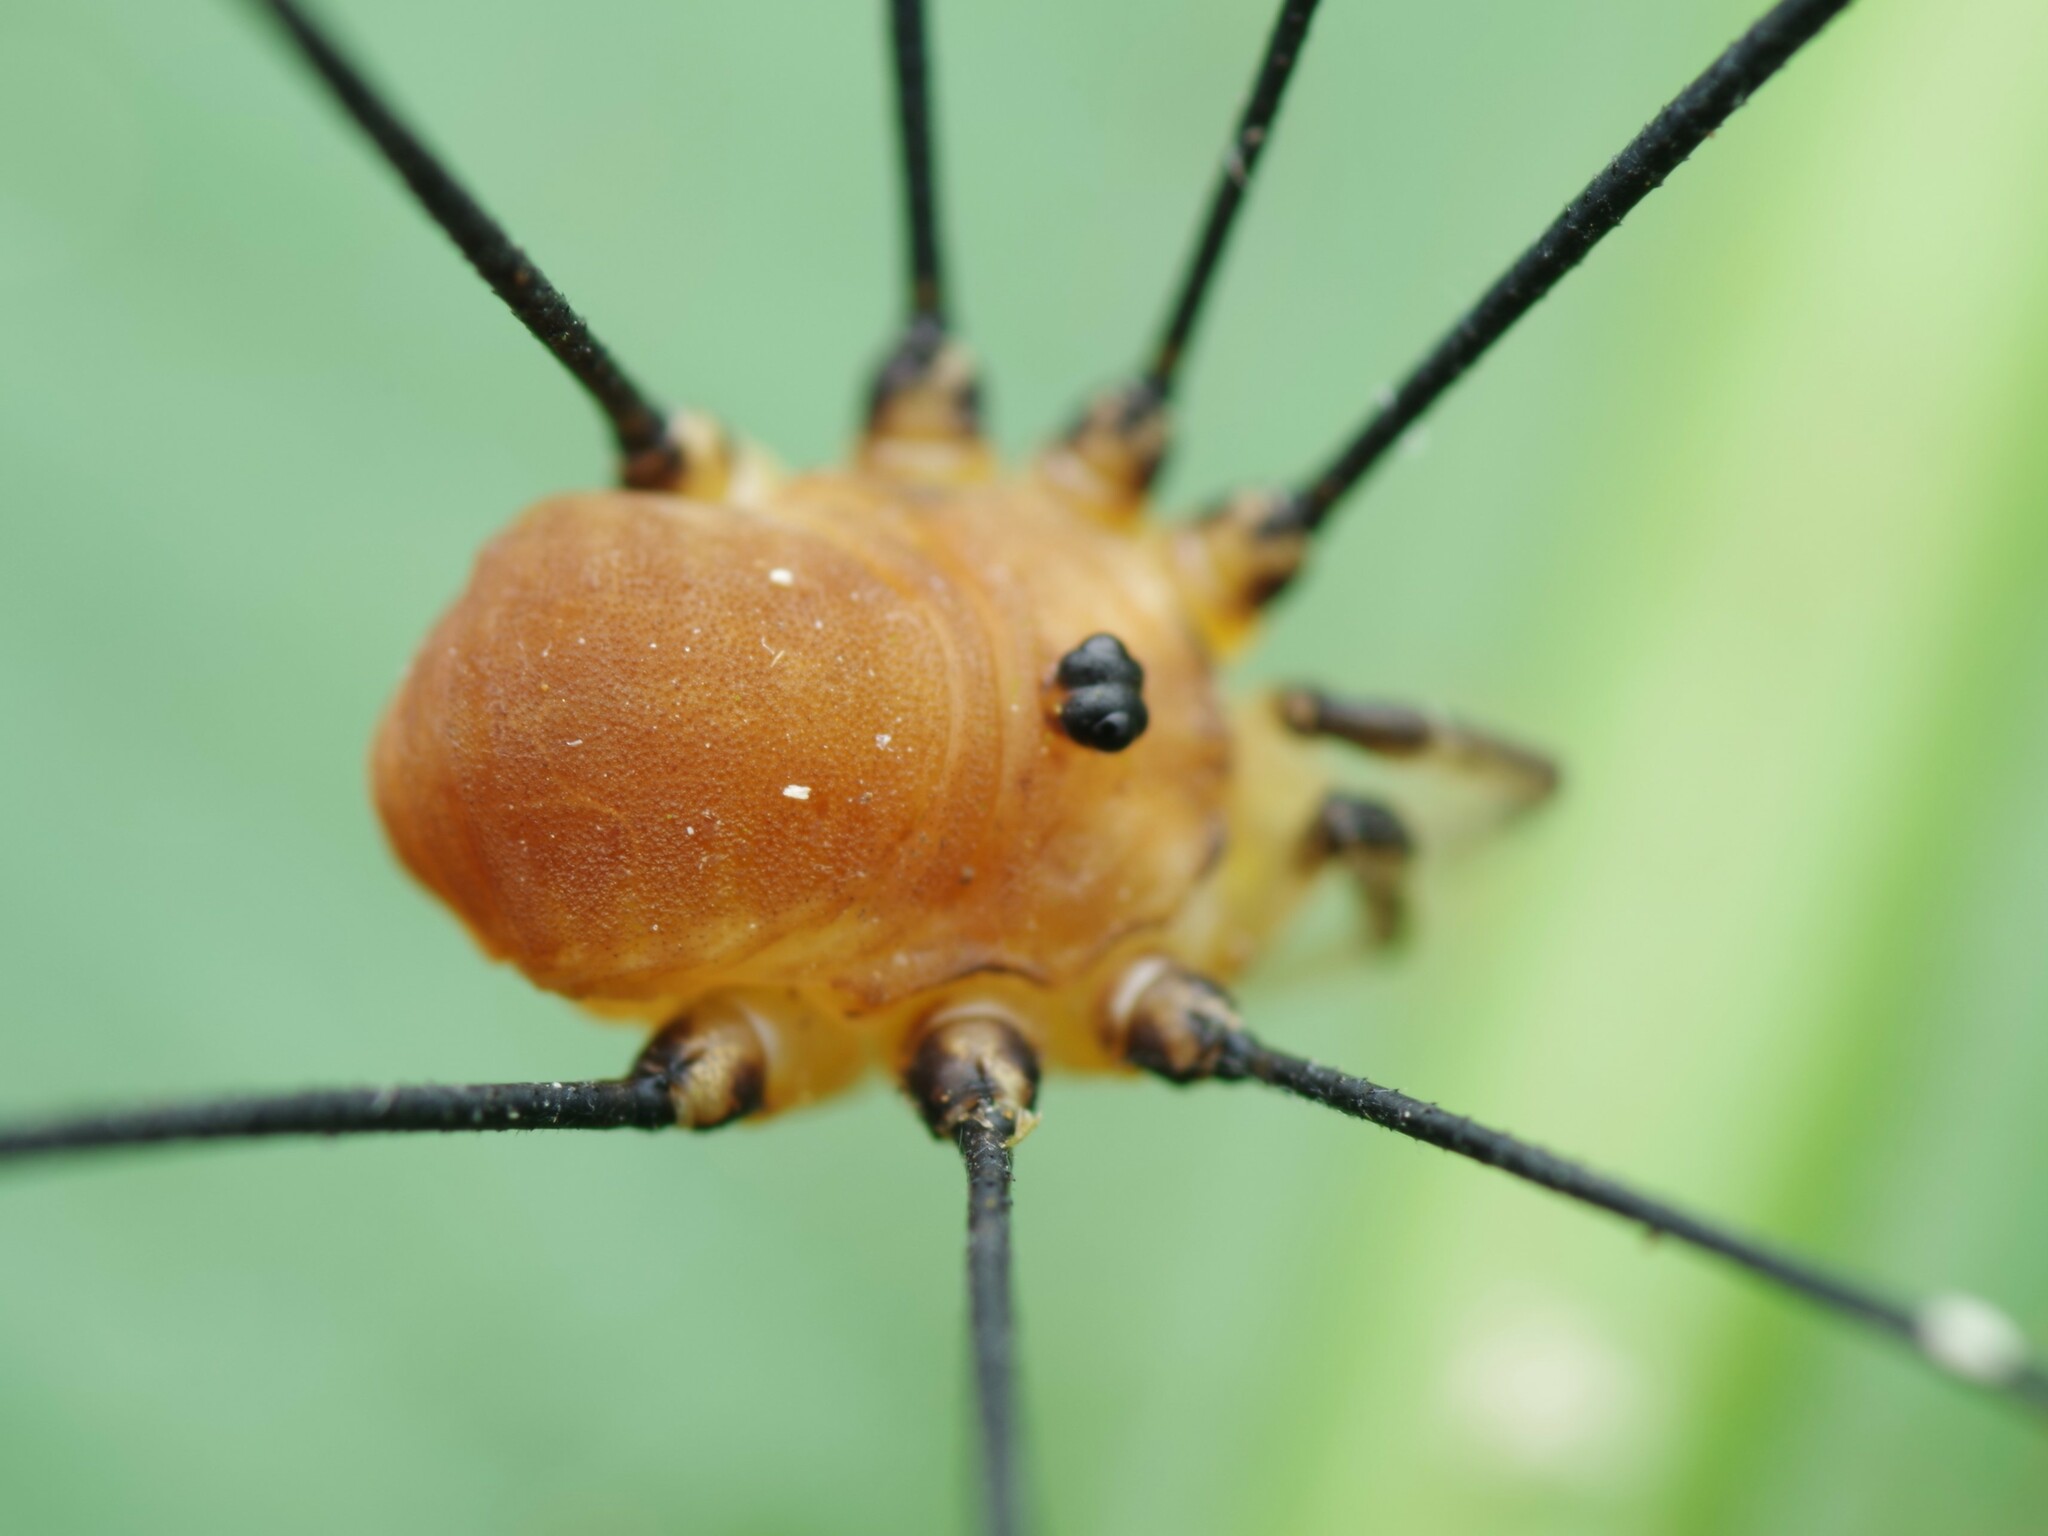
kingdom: Animalia
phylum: Arthropoda
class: Arachnida
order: Opiliones
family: Sclerosomatidae
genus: Leiobunum
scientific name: Leiobunum rotundum
